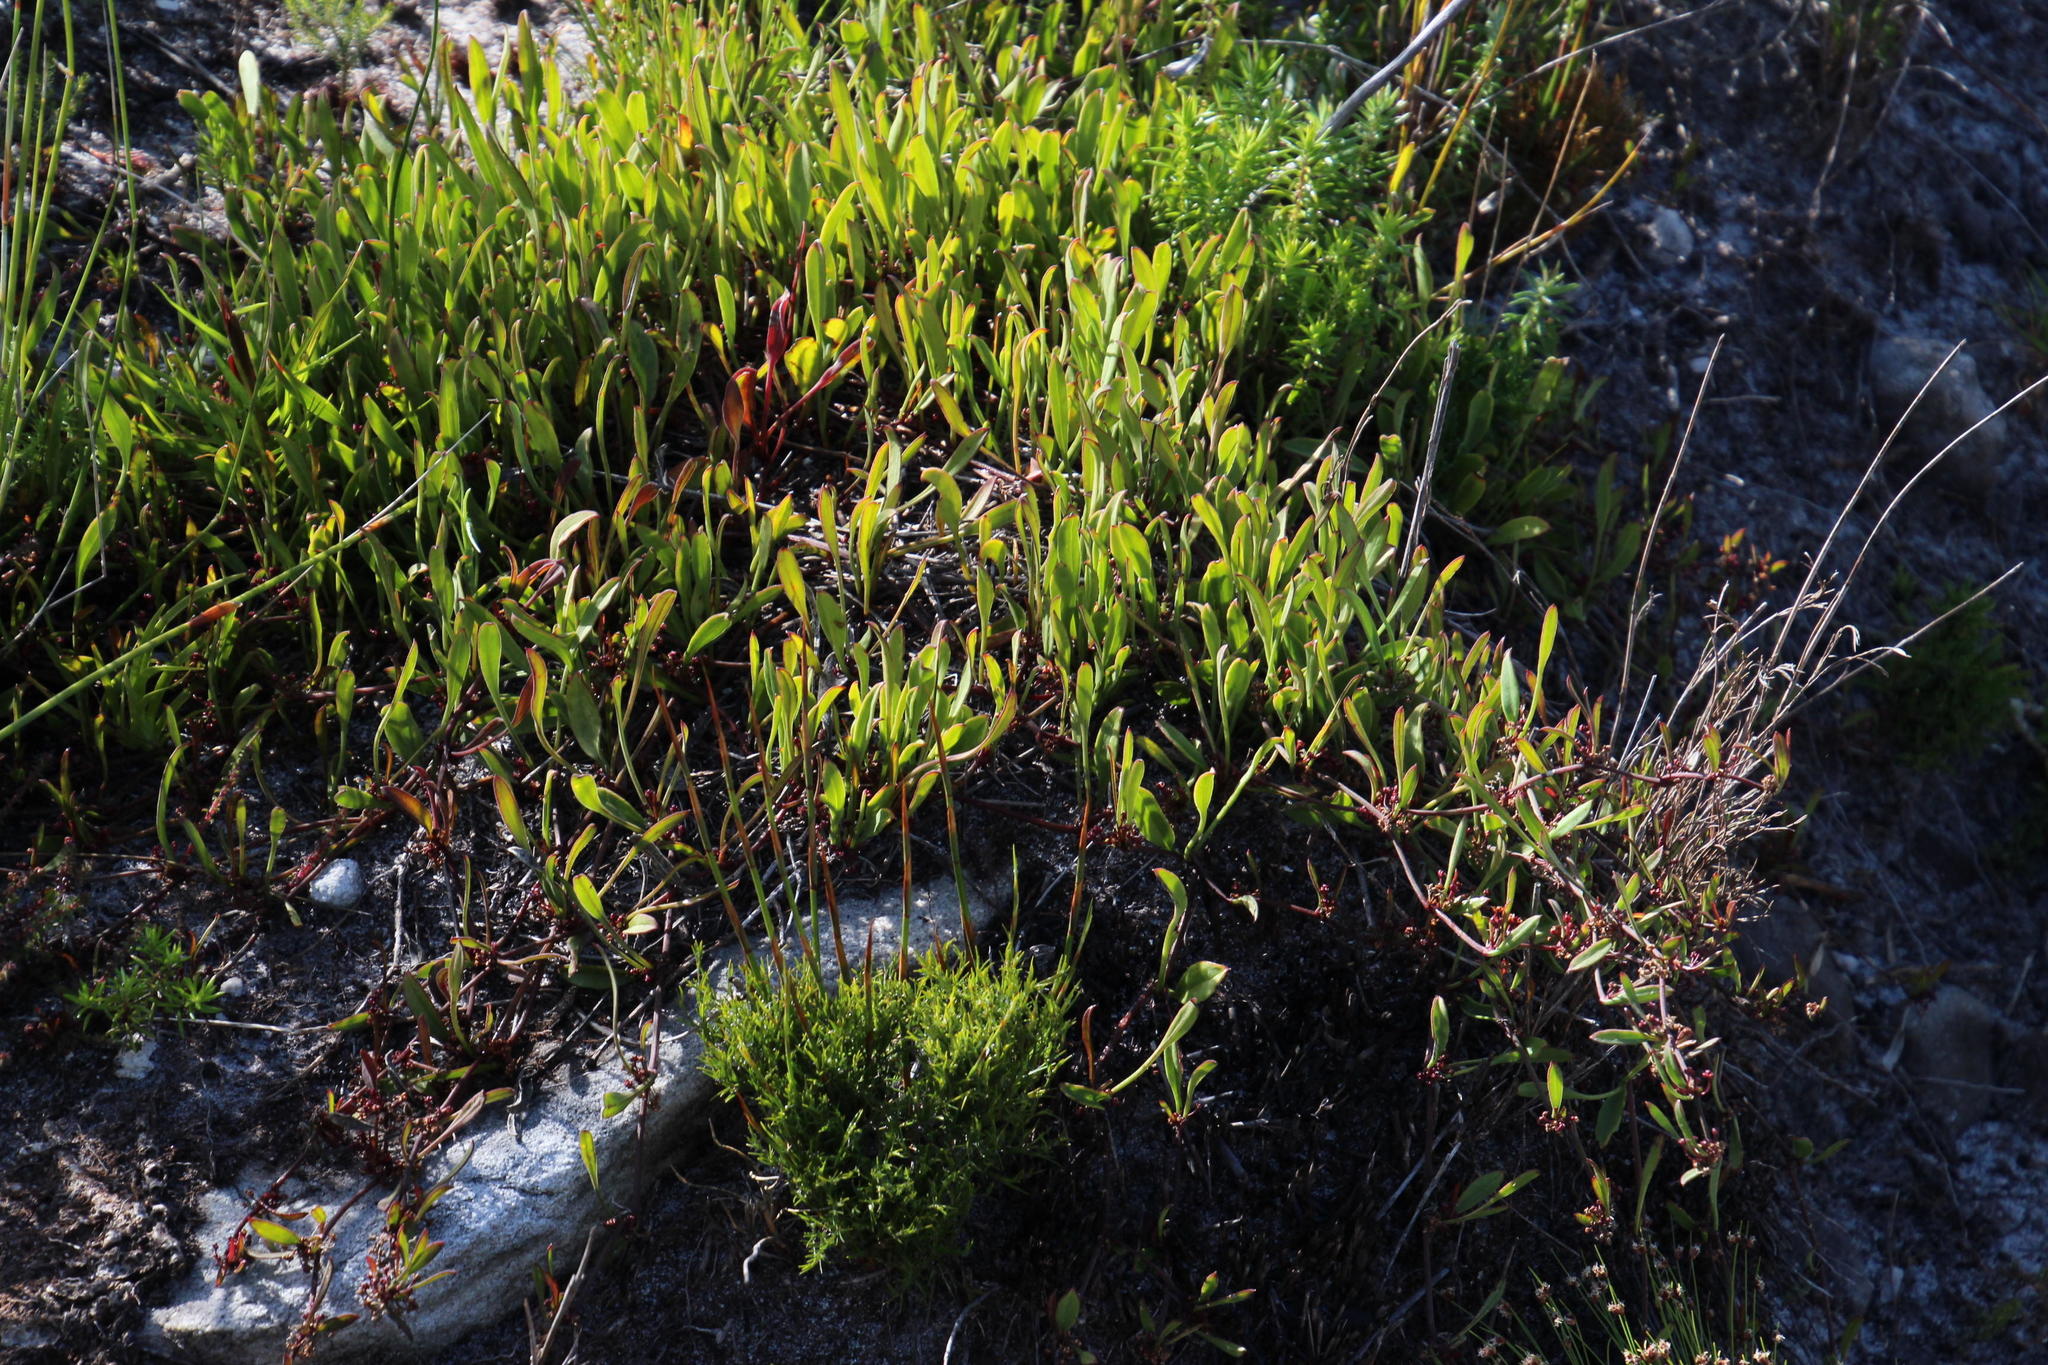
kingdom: Plantae
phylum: Tracheophyta
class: Magnoliopsida
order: Apiales
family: Apiaceae
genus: Centella
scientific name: Centella glabrata
